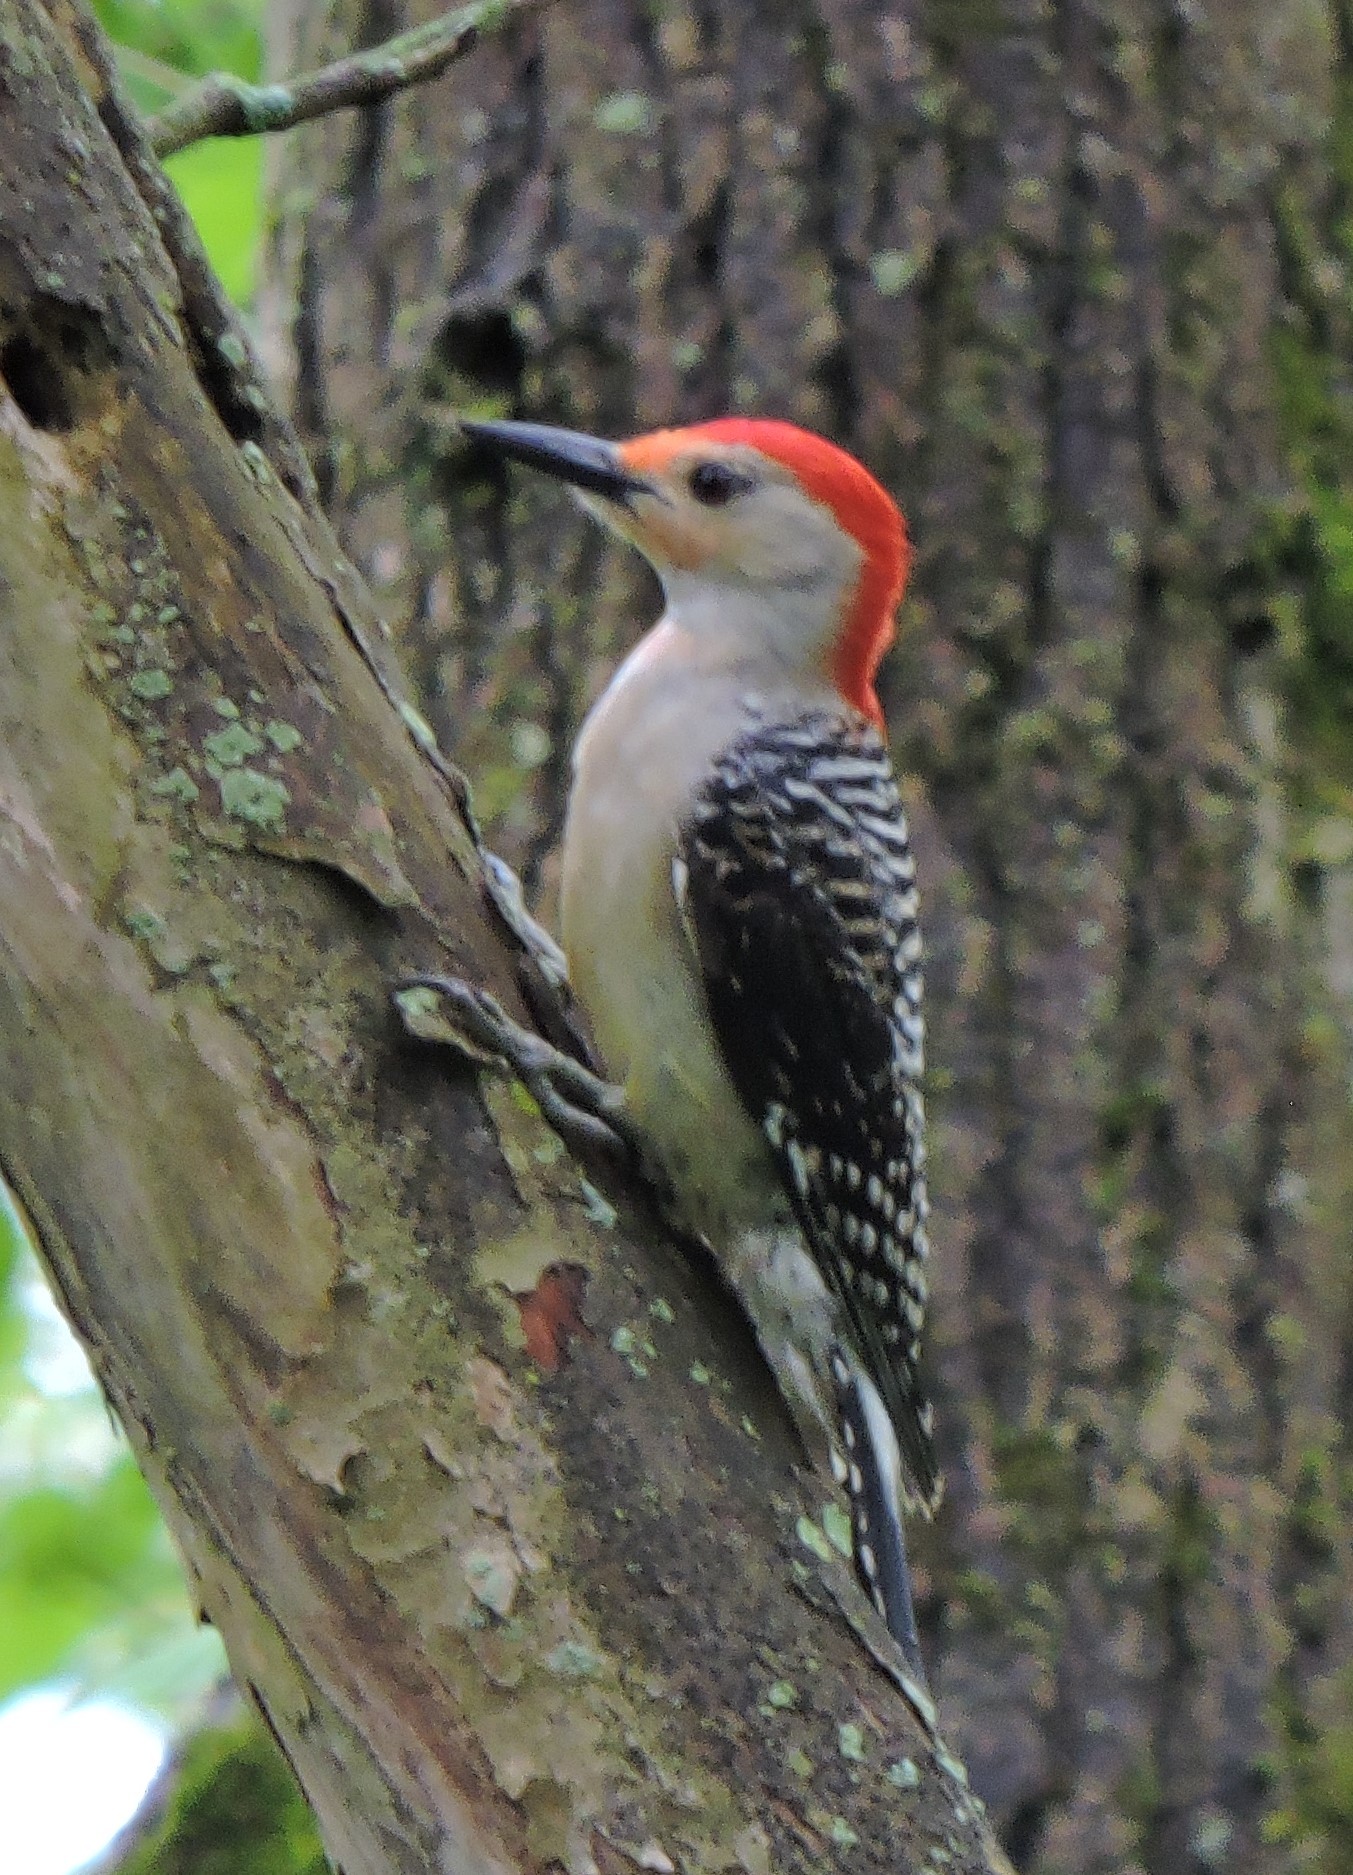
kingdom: Animalia
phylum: Chordata
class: Aves
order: Piciformes
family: Picidae
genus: Melanerpes
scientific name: Melanerpes carolinus
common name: Red-bellied woodpecker
